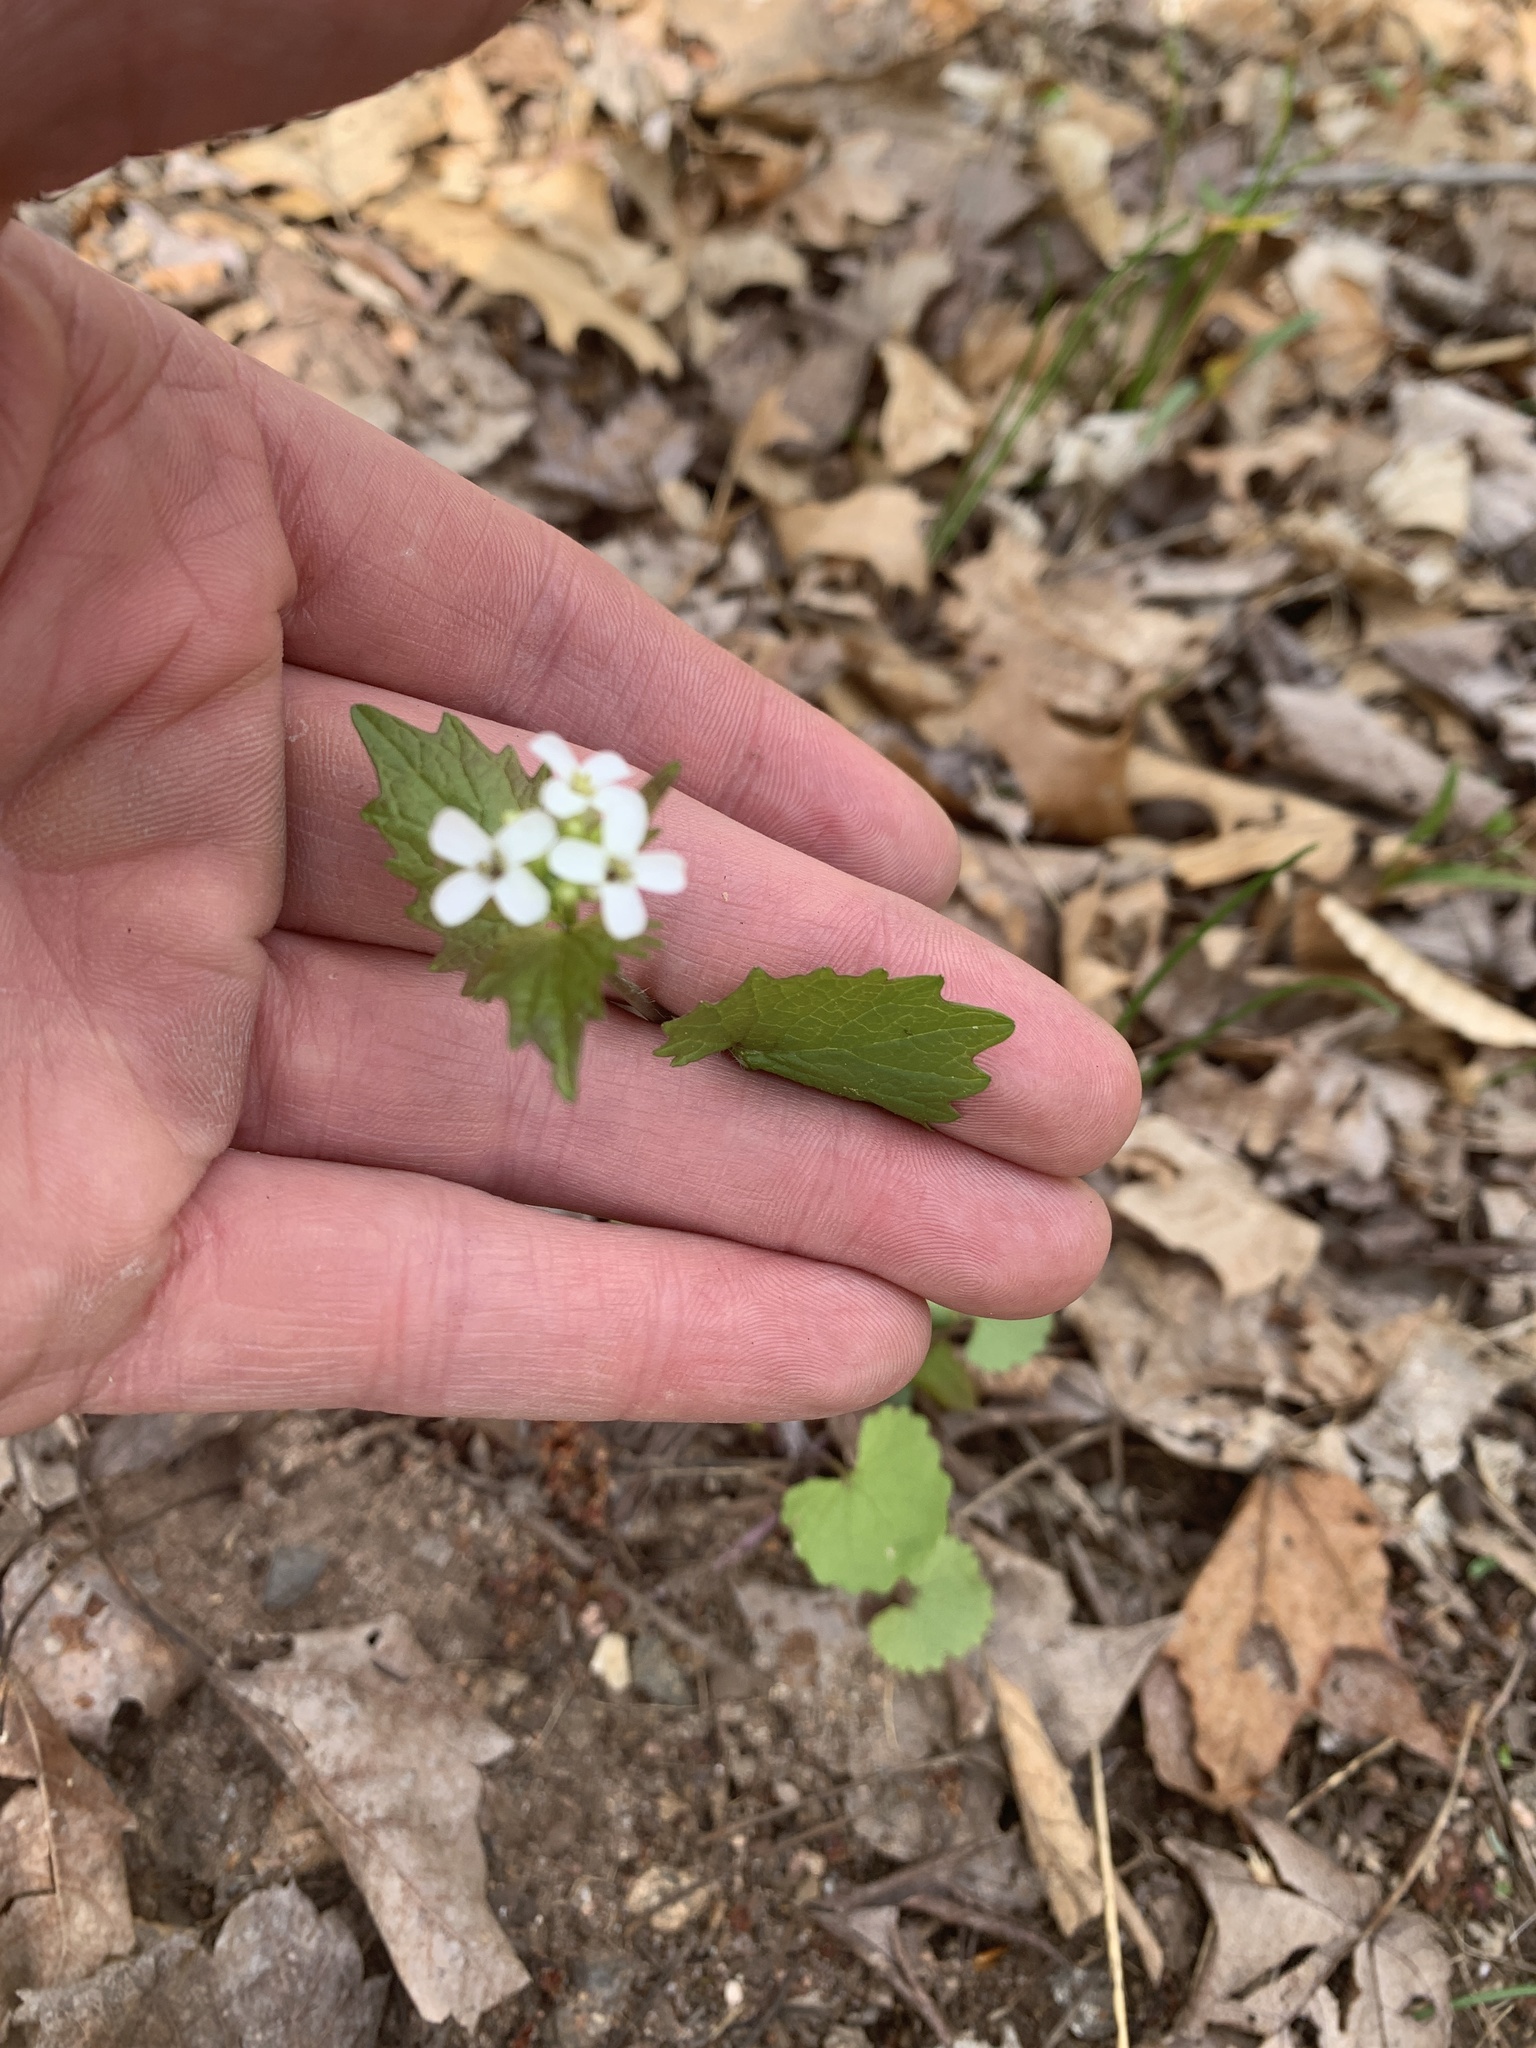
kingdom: Plantae
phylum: Tracheophyta
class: Magnoliopsida
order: Brassicales
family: Brassicaceae
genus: Alliaria
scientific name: Alliaria petiolata
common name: Garlic mustard
